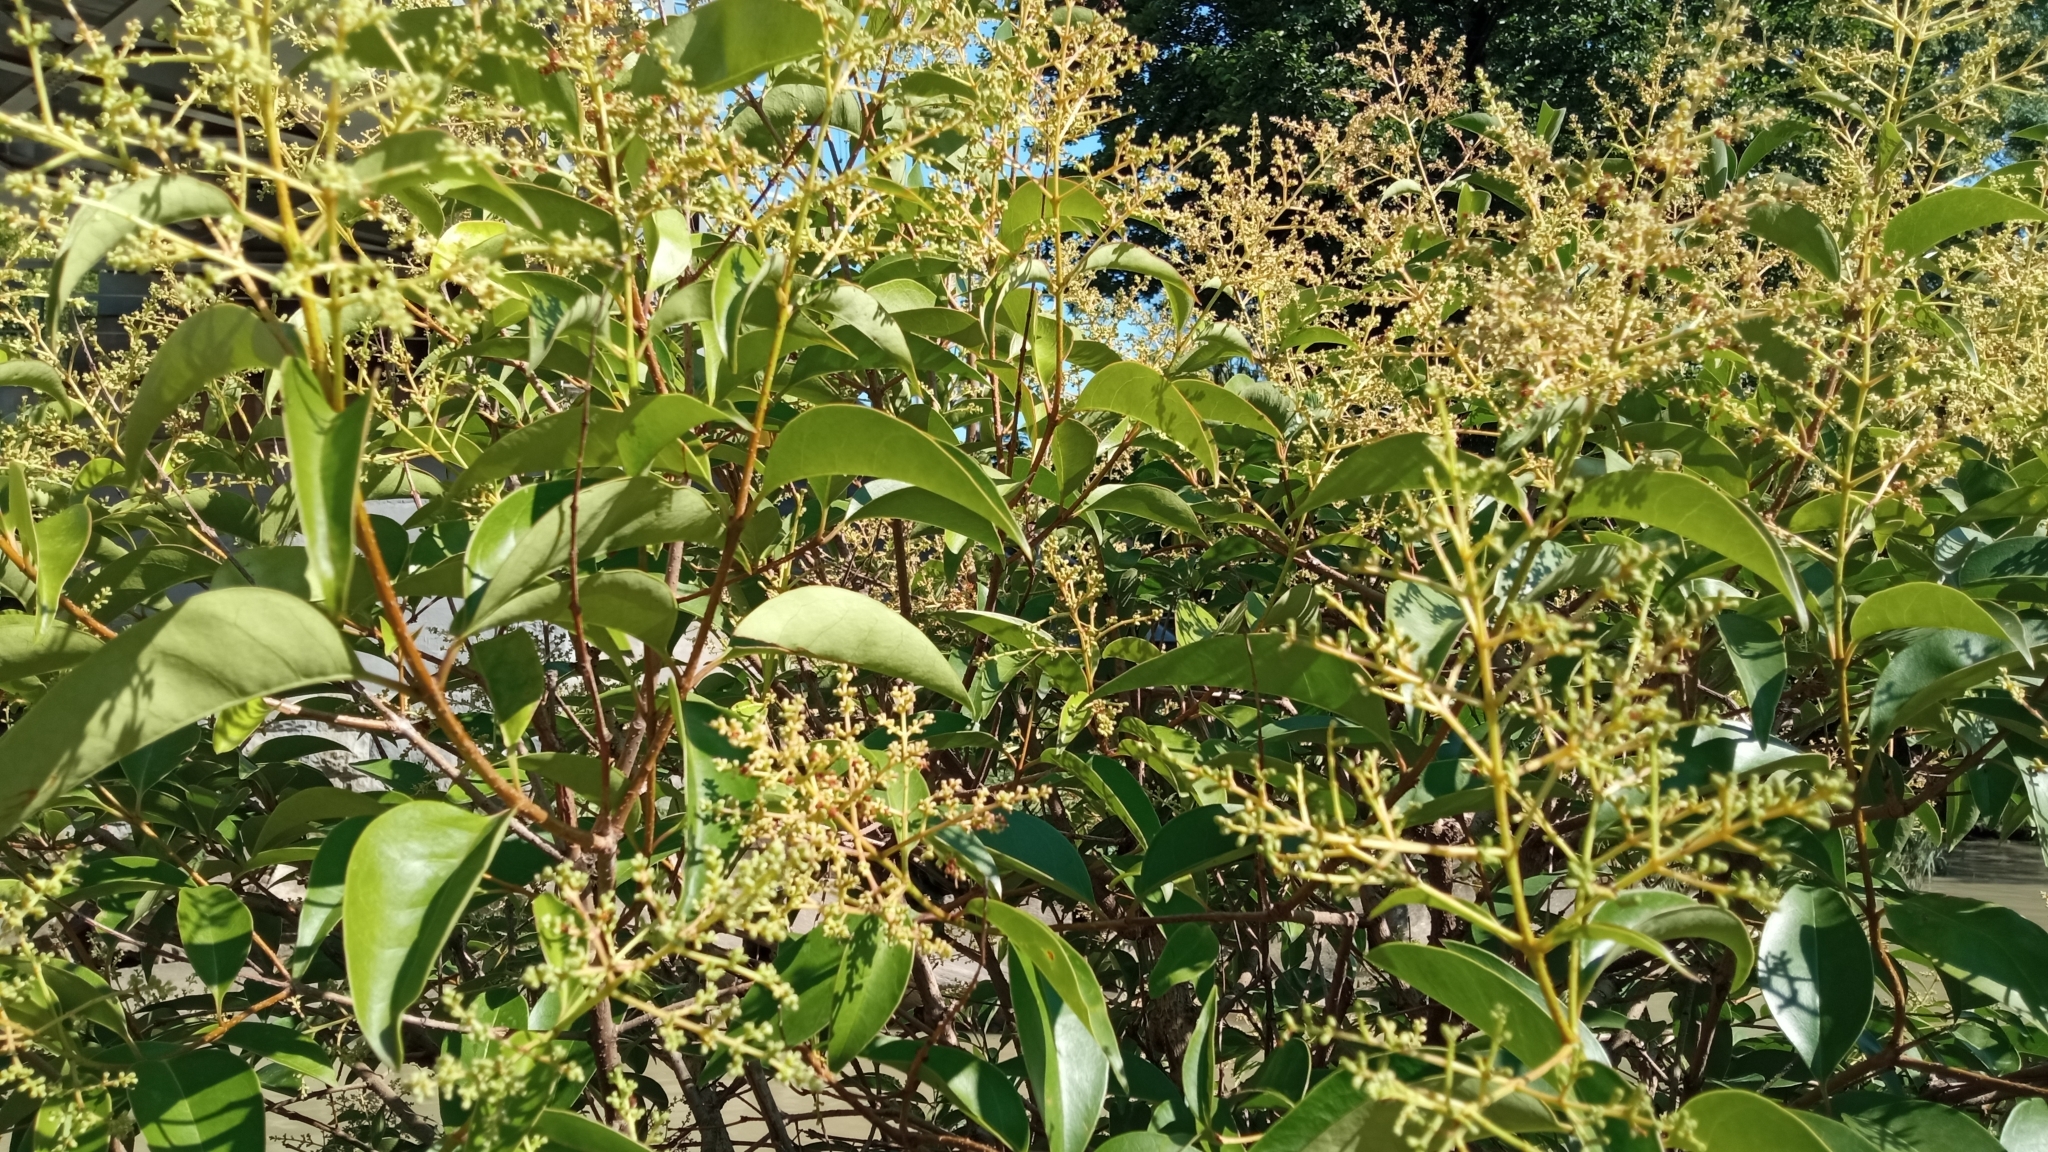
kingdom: Plantae
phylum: Tracheophyta
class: Magnoliopsida
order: Lamiales
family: Oleaceae
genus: Ligustrum
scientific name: Ligustrum lucidum
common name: Glossy privet
